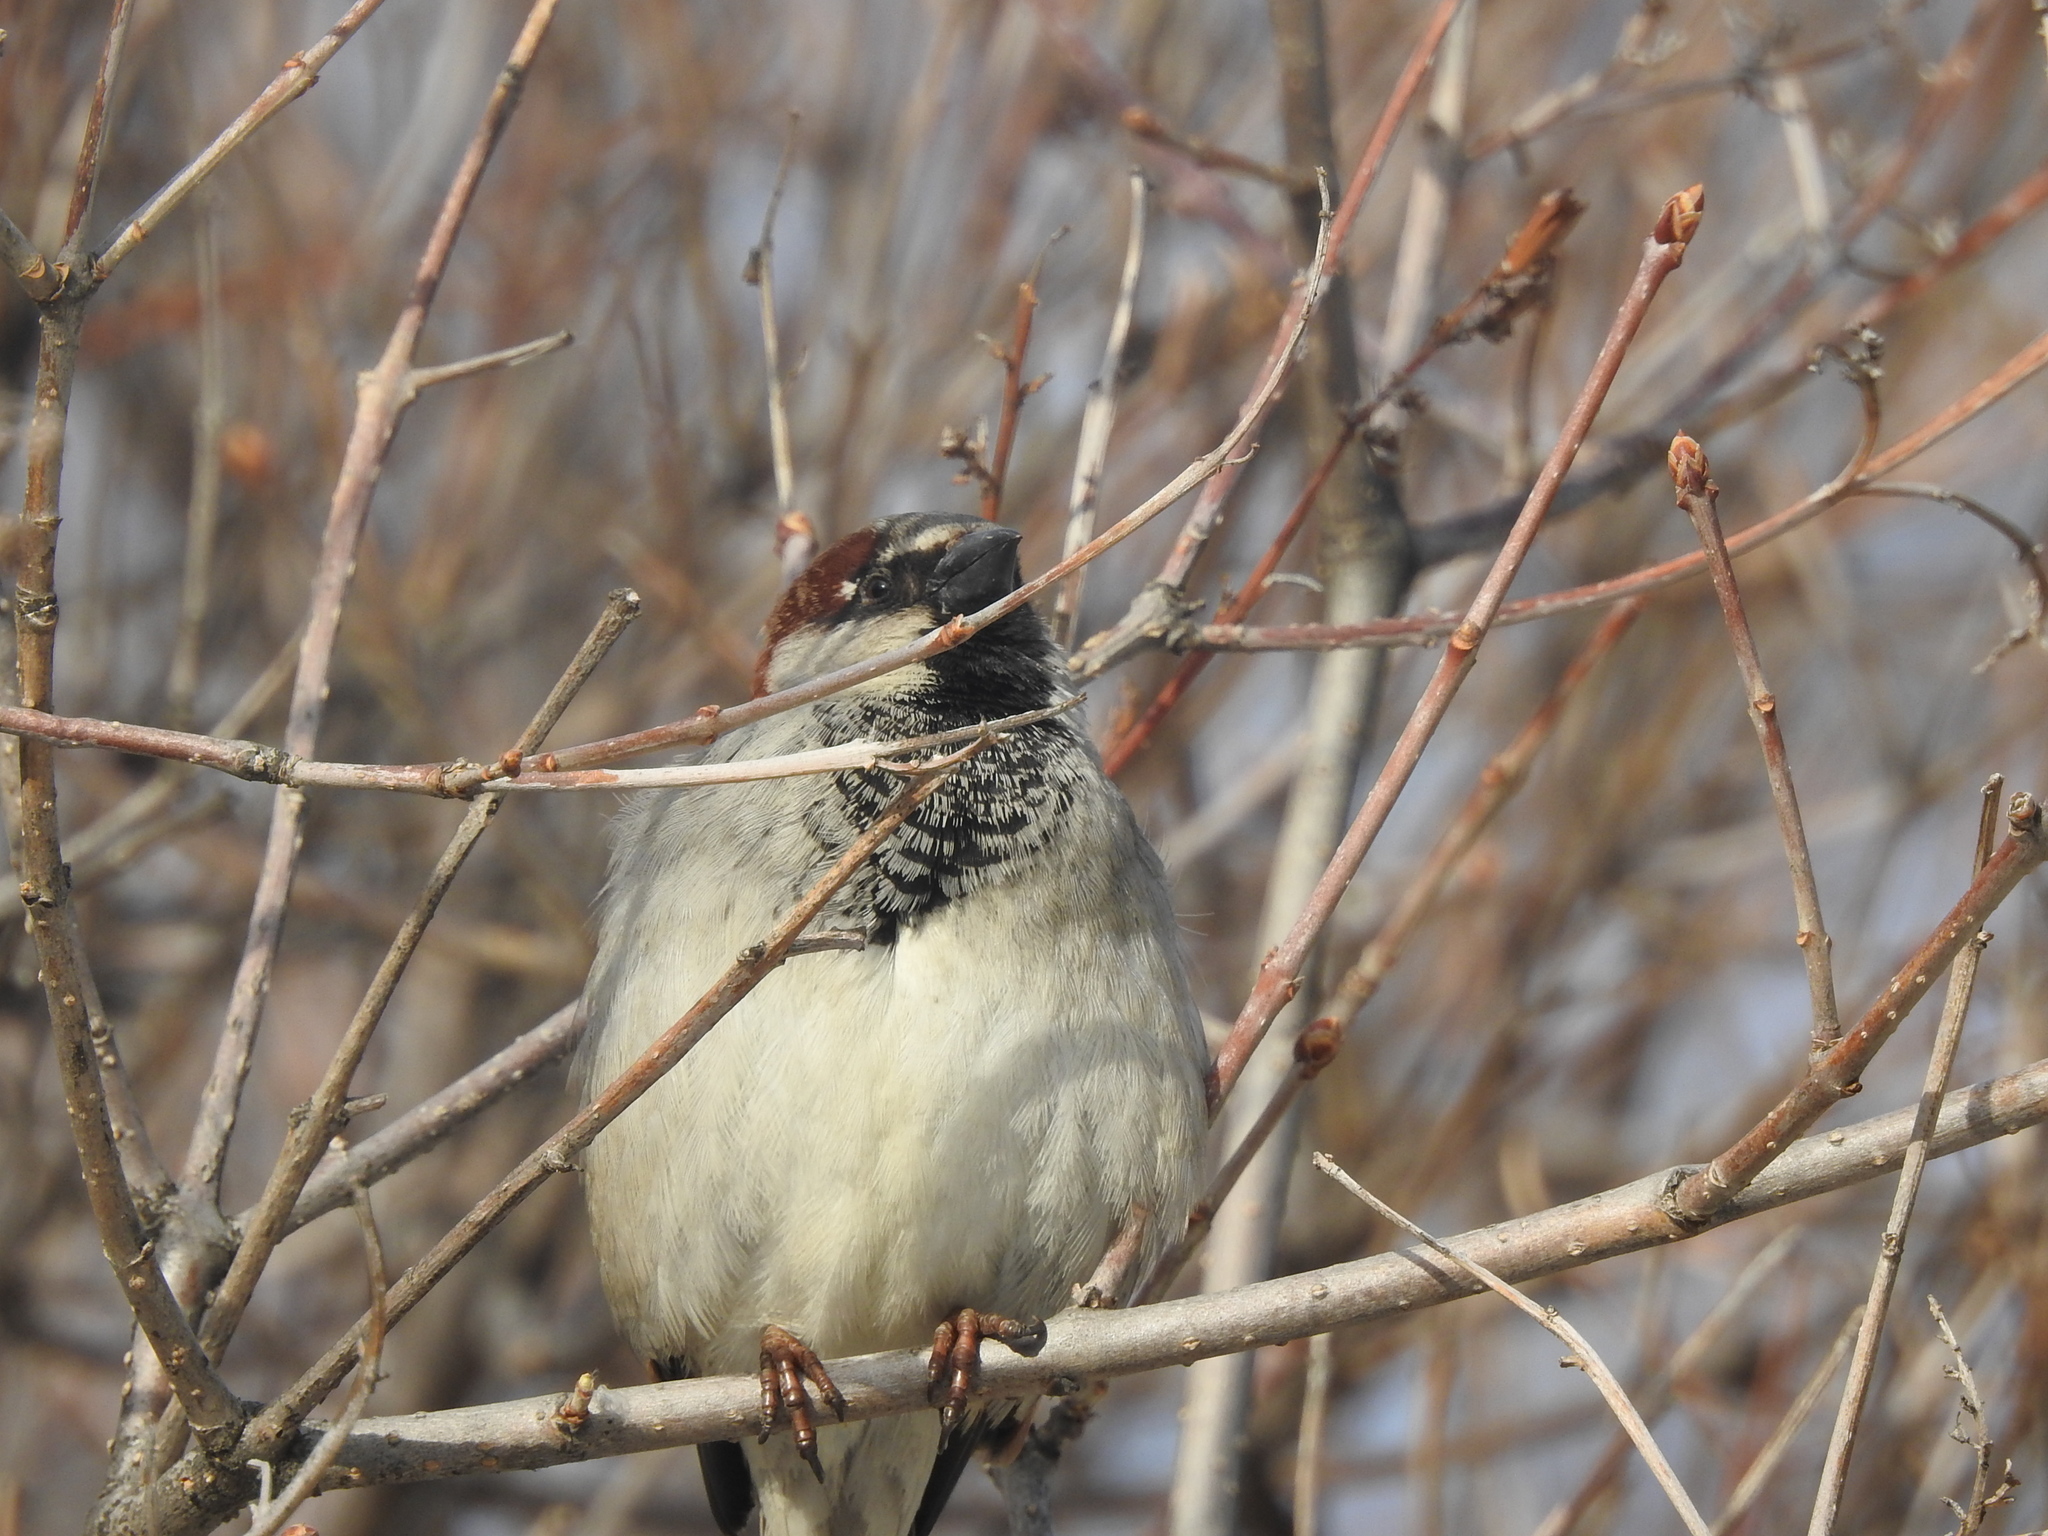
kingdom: Animalia
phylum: Chordata
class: Aves
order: Passeriformes
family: Passeridae
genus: Passer
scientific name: Passer domesticus
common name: House sparrow
